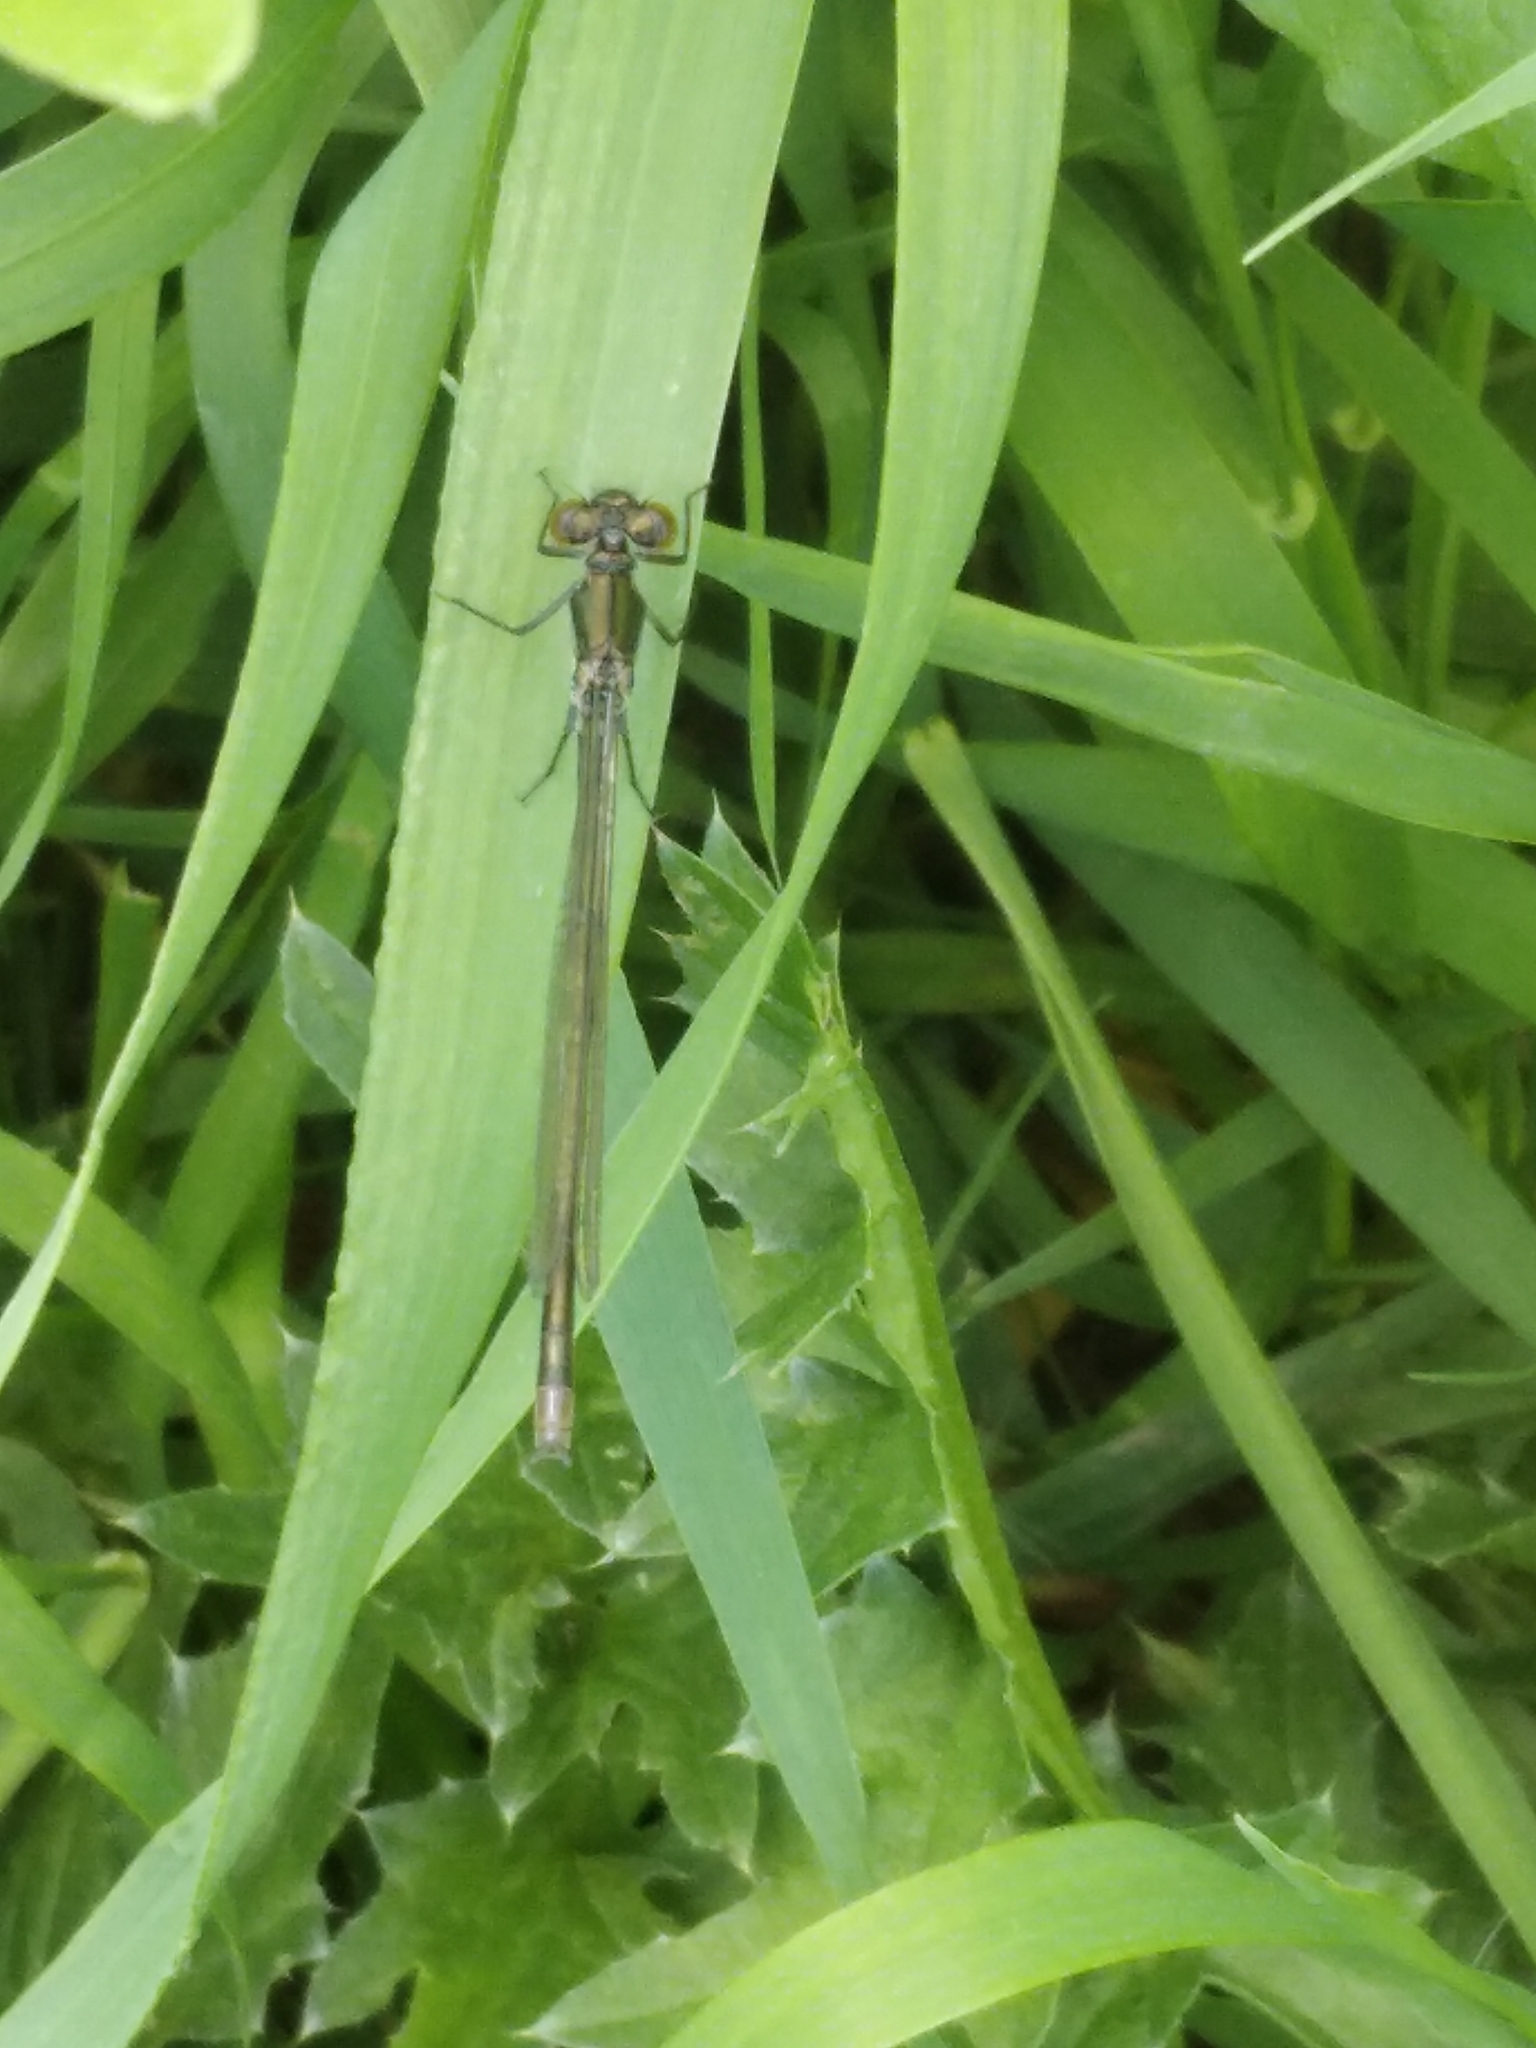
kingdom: Animalia
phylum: Arthropoda
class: Insecta
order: Odonata
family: Coenagrionidae
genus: Erythromma
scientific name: Erythromma najas
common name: Red-eyed damselfly
